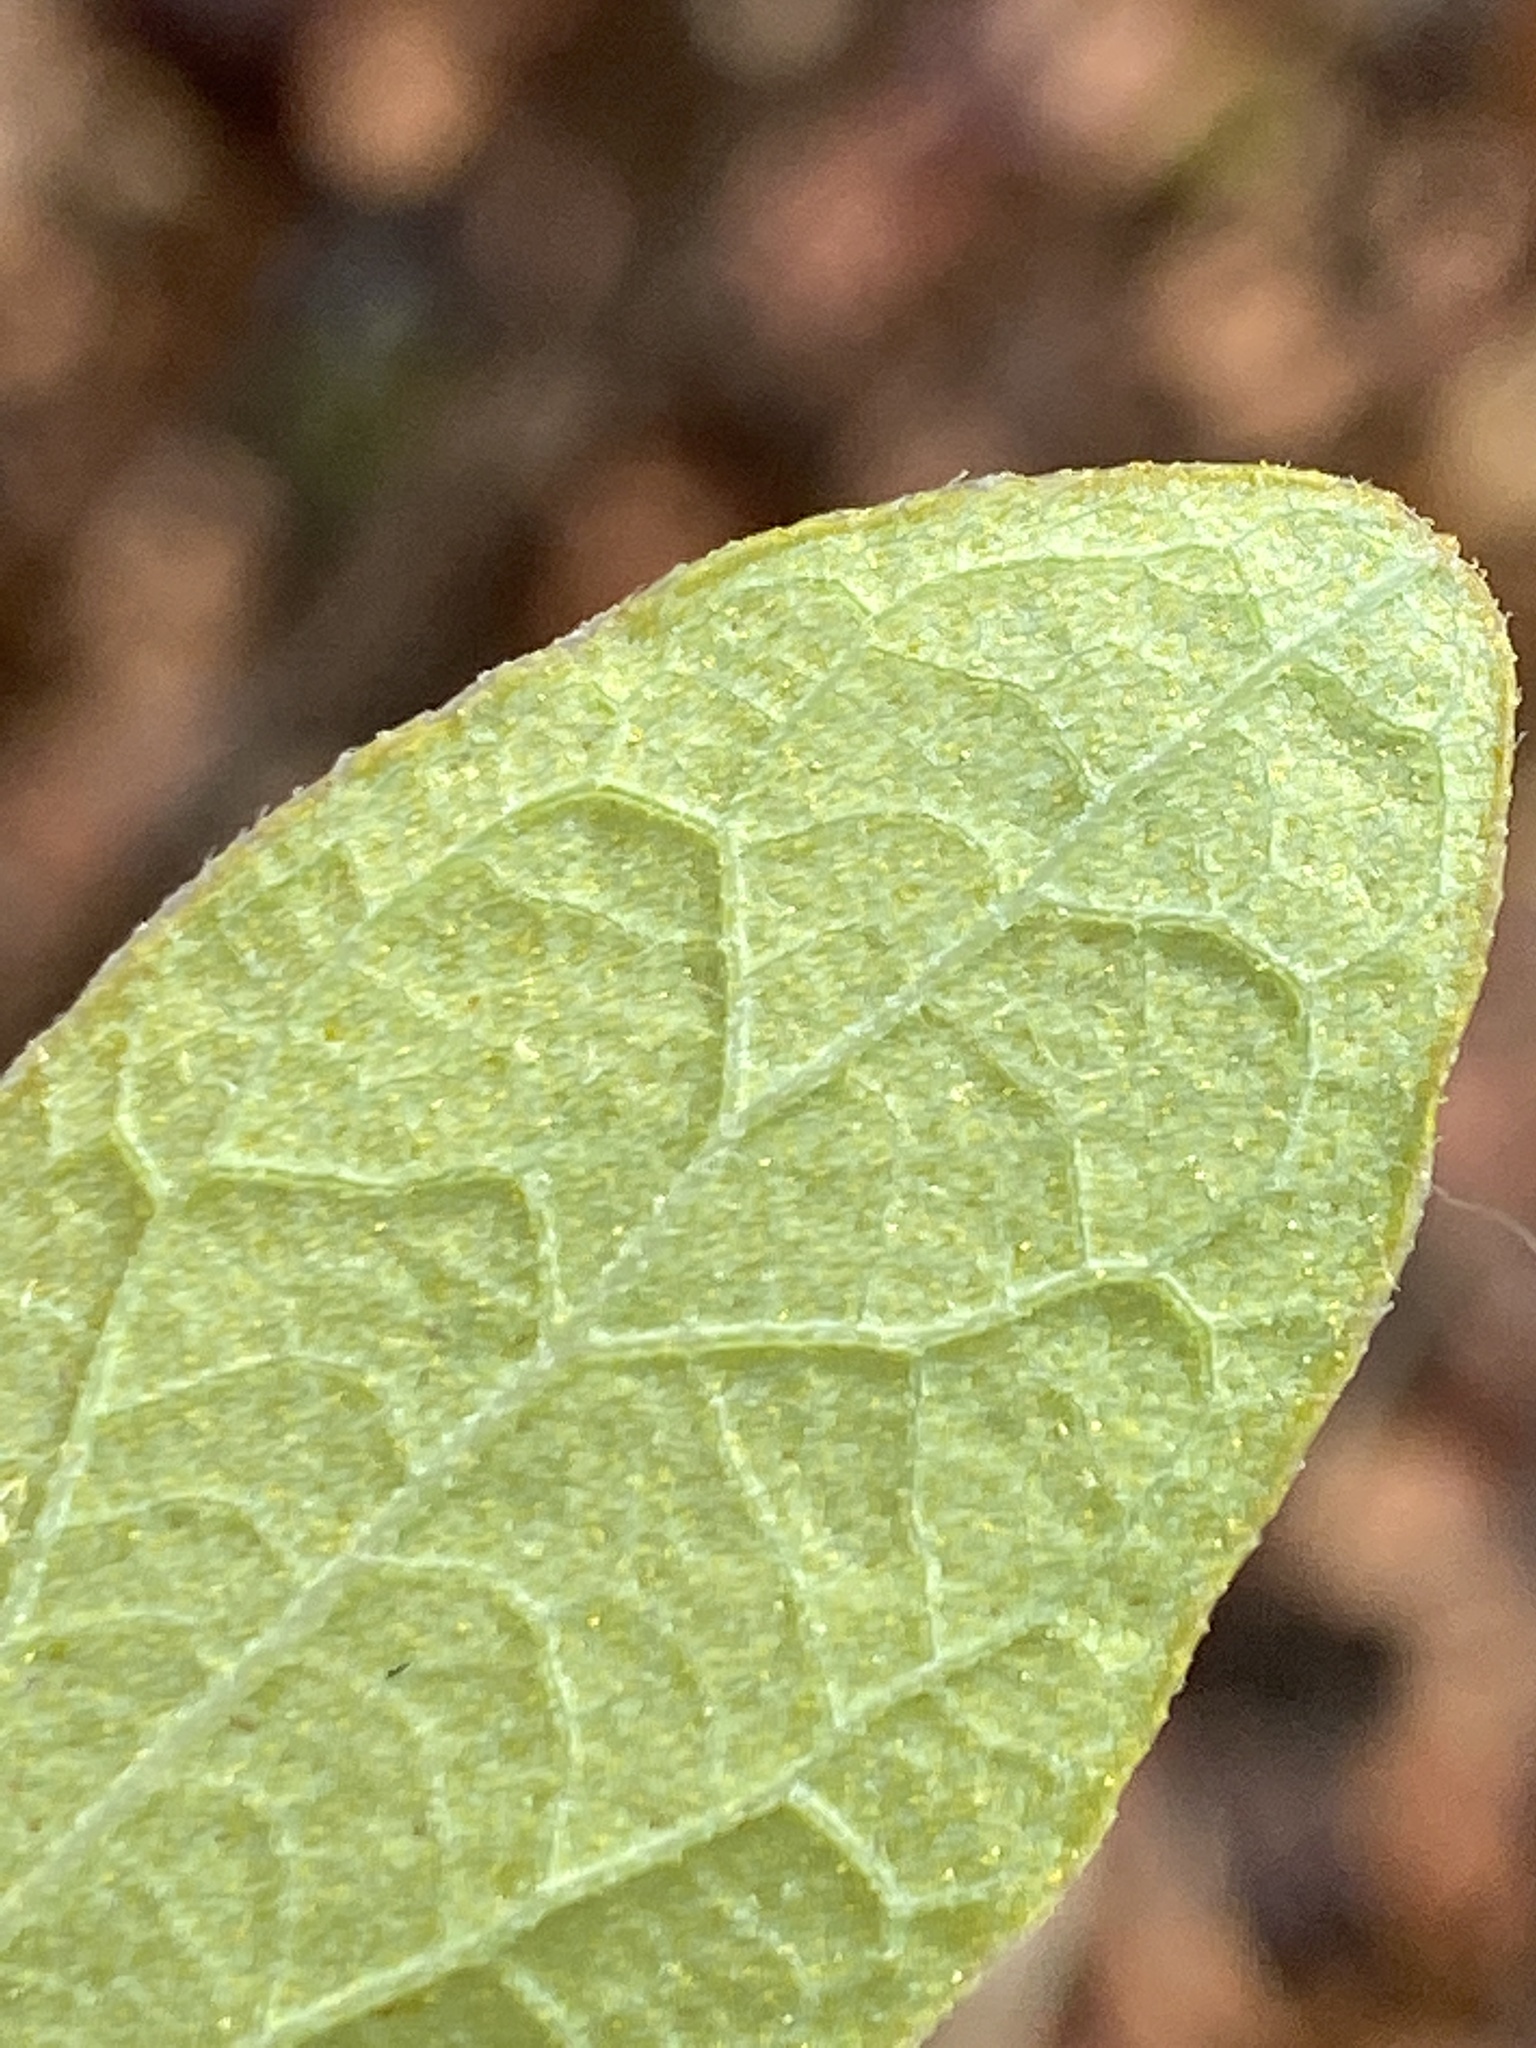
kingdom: Plantae
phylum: Tracheophyta
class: Magnoliopsida
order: Ericales
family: Ericaceae
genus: Gaylussacia
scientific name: Gaylussacia frondosa
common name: Dangleberry
